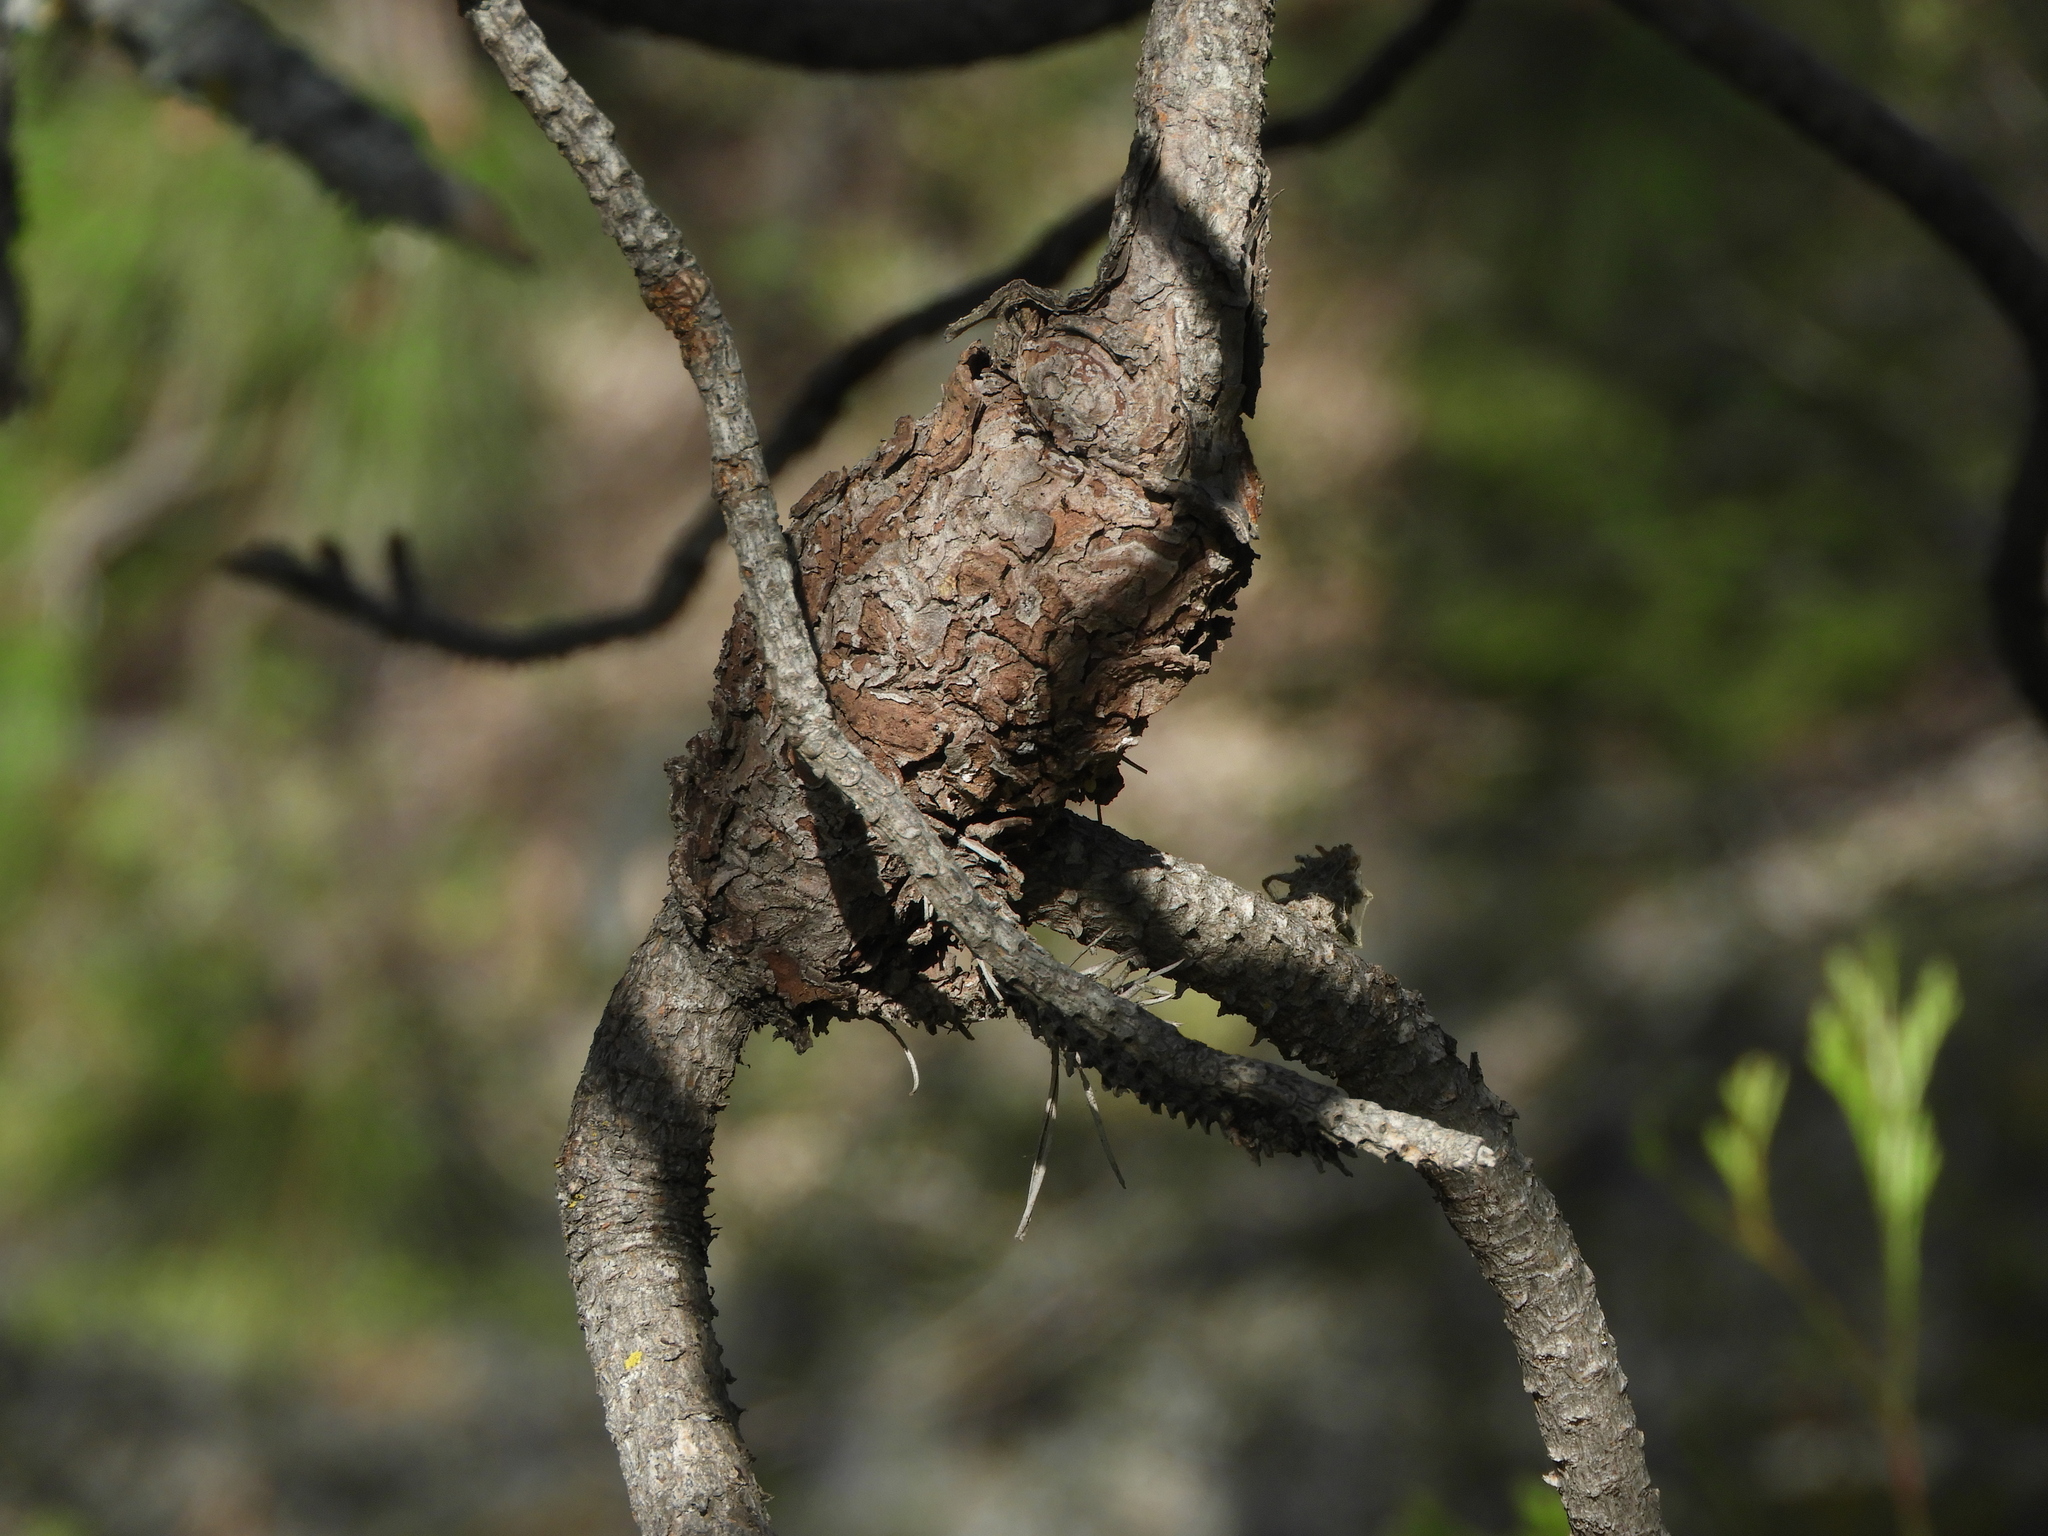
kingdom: Fungi
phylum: Basidiomycota
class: Pucciniomycetes
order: Pucciniales
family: Cronartiaceae
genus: Cronartium
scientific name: Cronartium harknessii
